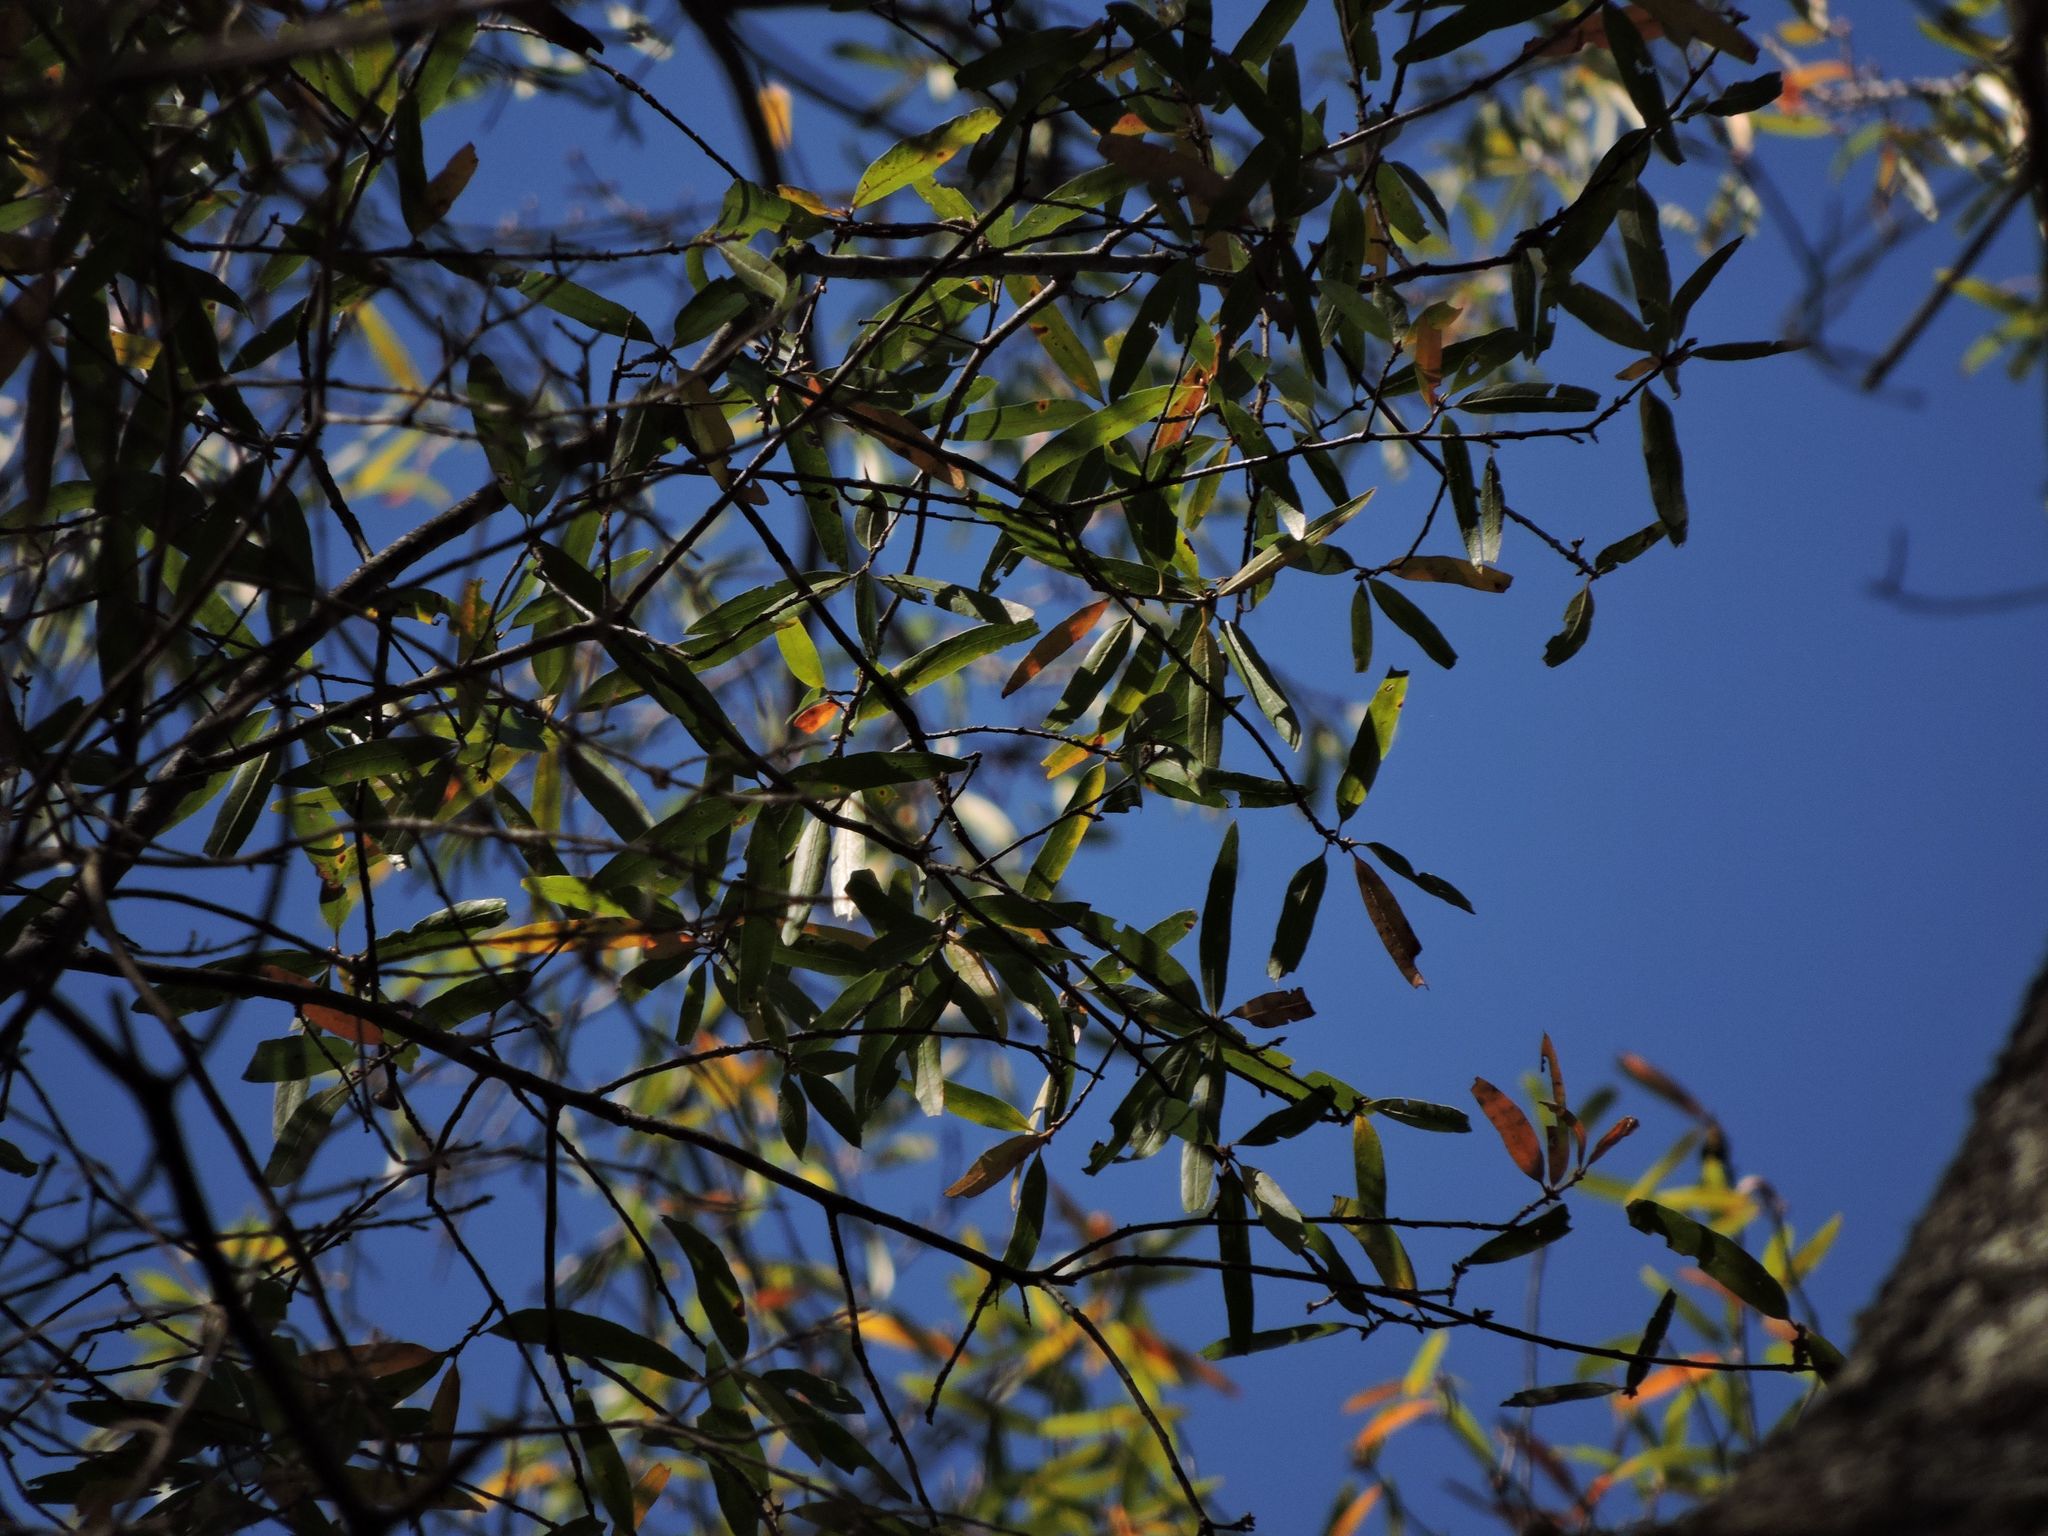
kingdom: Plantae
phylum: Tracheophyta
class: Magnoliopsida
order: Fagales
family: Fagaceae
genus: Quercus
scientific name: Quercus phellos
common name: Willow oak
